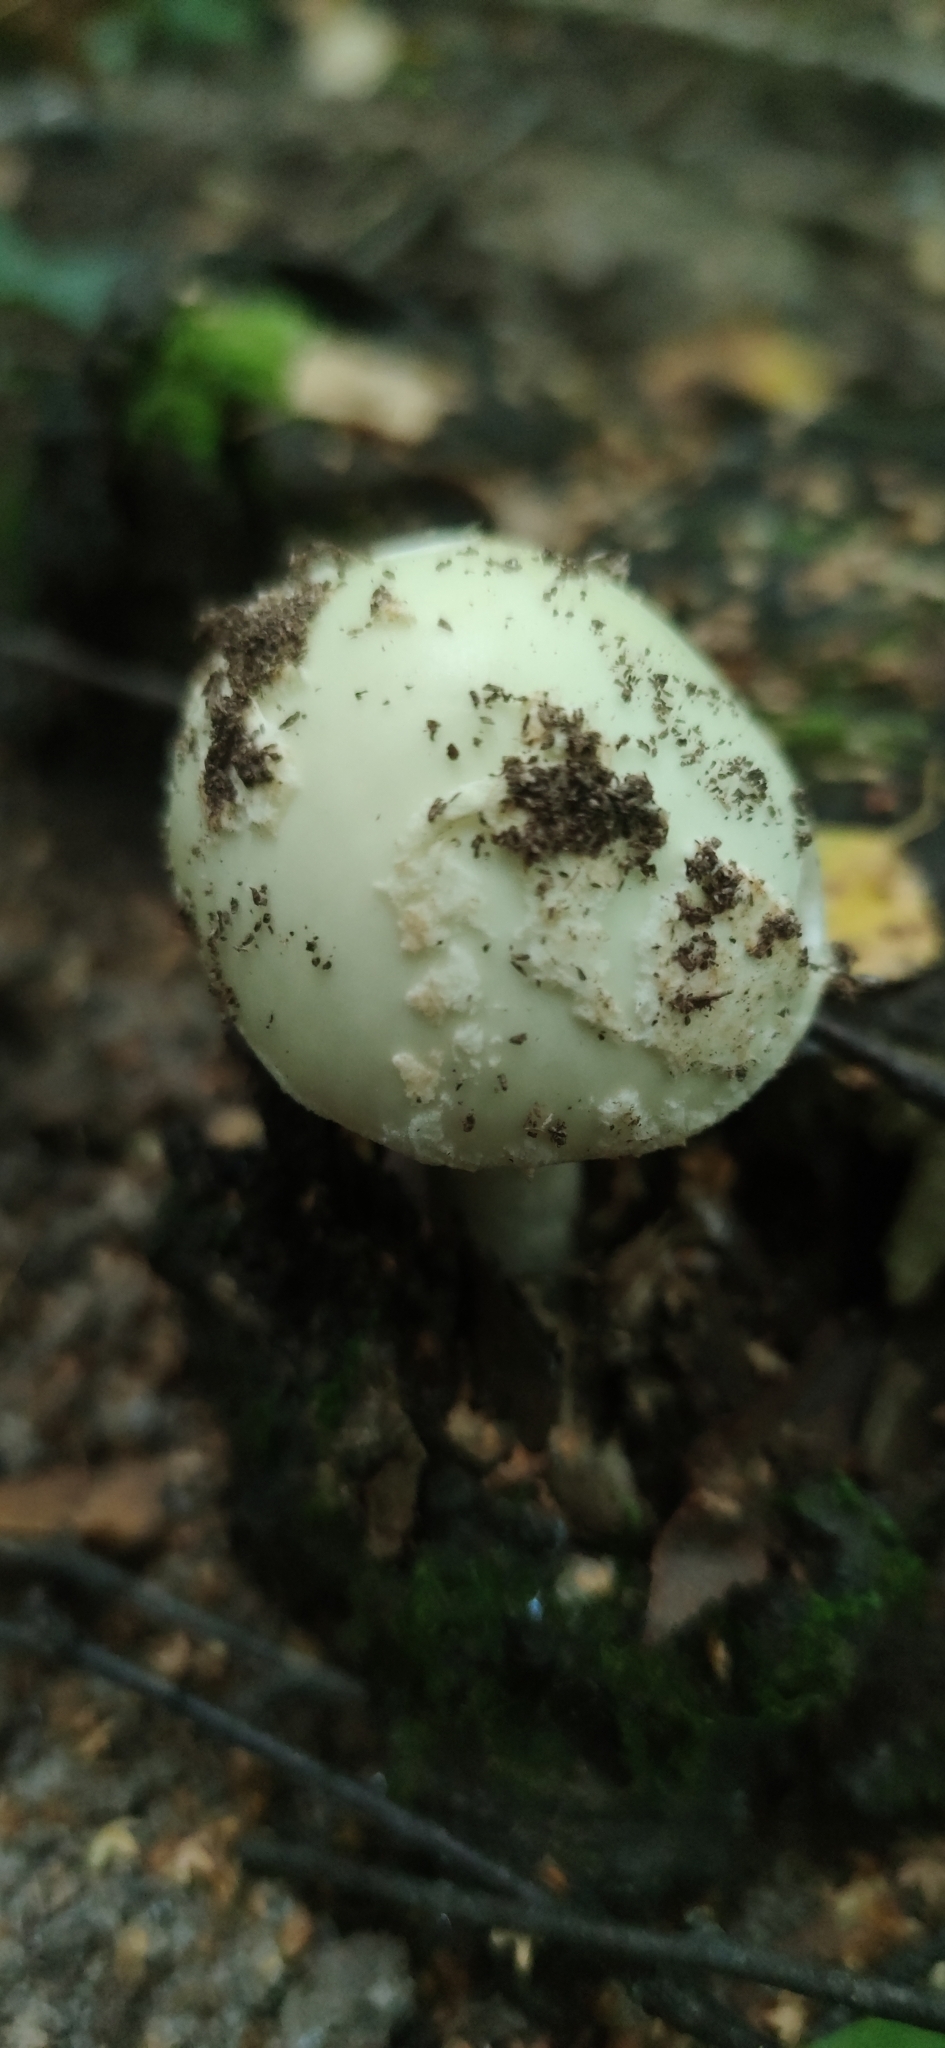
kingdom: Fungi
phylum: Basidiomycota
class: Agaricomycetes
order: Agaricales
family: Amanitaceae
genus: Amanita
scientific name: Amanita citrina
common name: False death-cap
